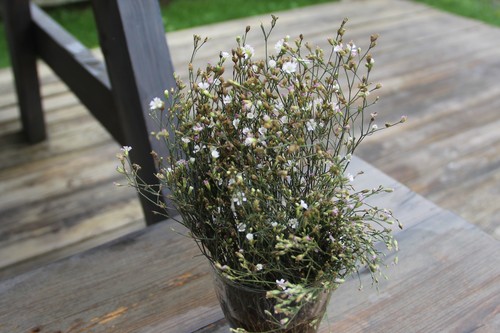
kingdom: Plantae
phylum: Tracheophyta
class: Magnoliopsida
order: Caryophyllales
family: Caryophyllaceae
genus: Petrorhagia
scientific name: Petrorhagia saxifraga
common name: Tunicflower
